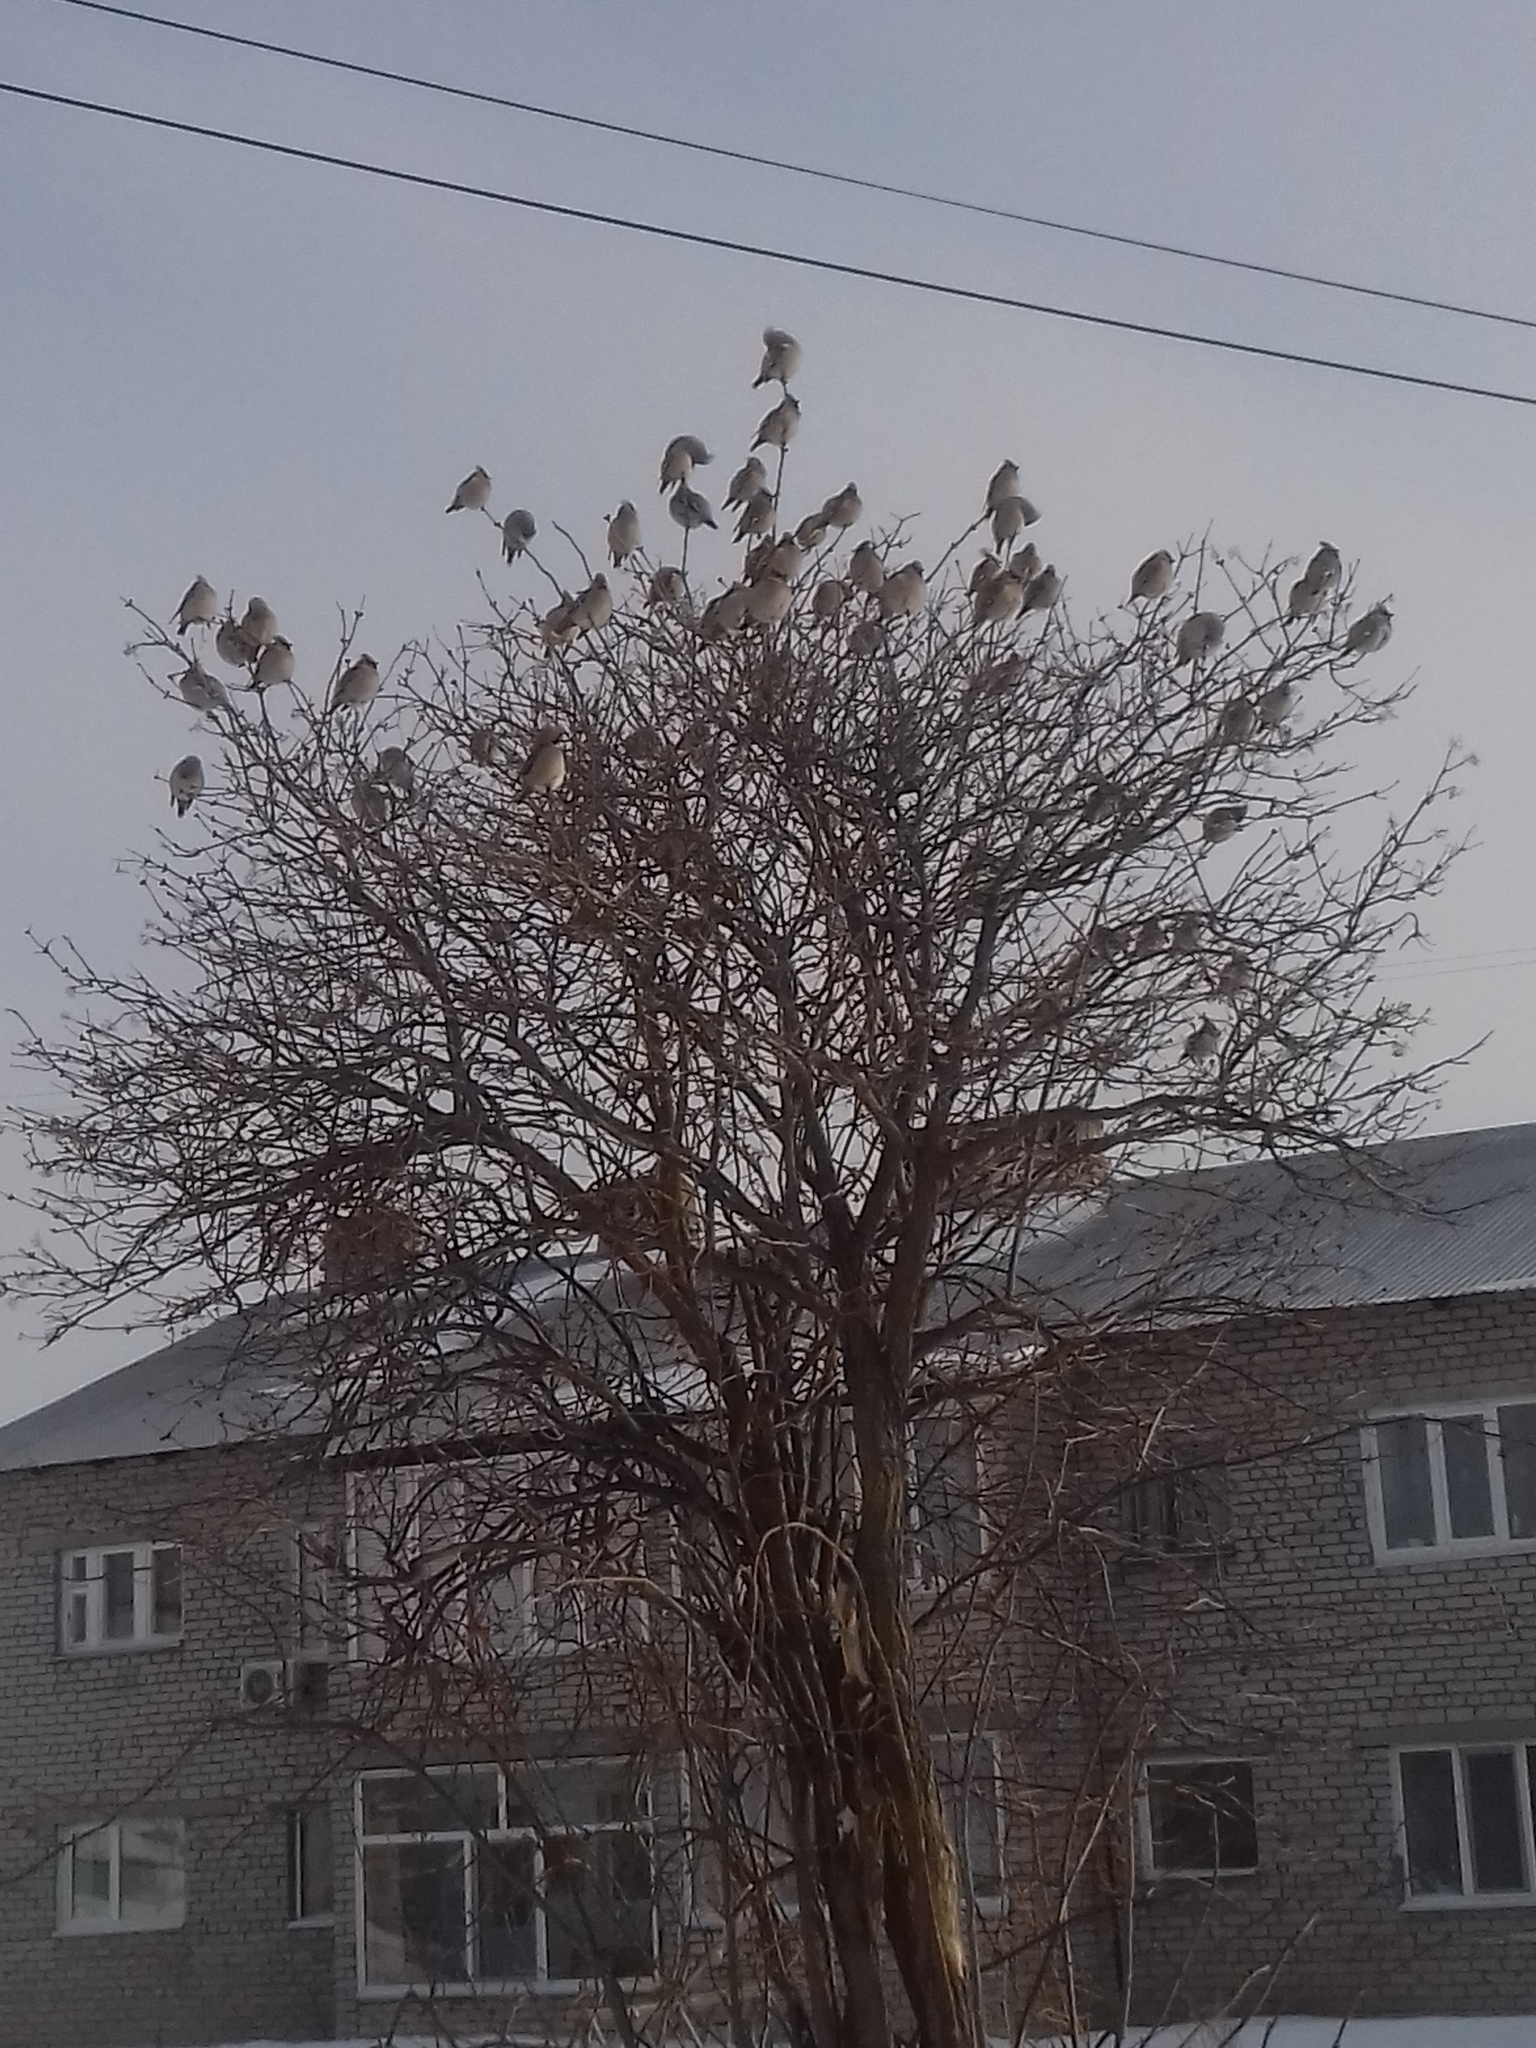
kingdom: Animalia
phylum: Chordata
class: Aves
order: Passeriformes
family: Bombycillidae
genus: Bombycilla
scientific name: Bombycilla garrulus
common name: Bohemian waxwing
